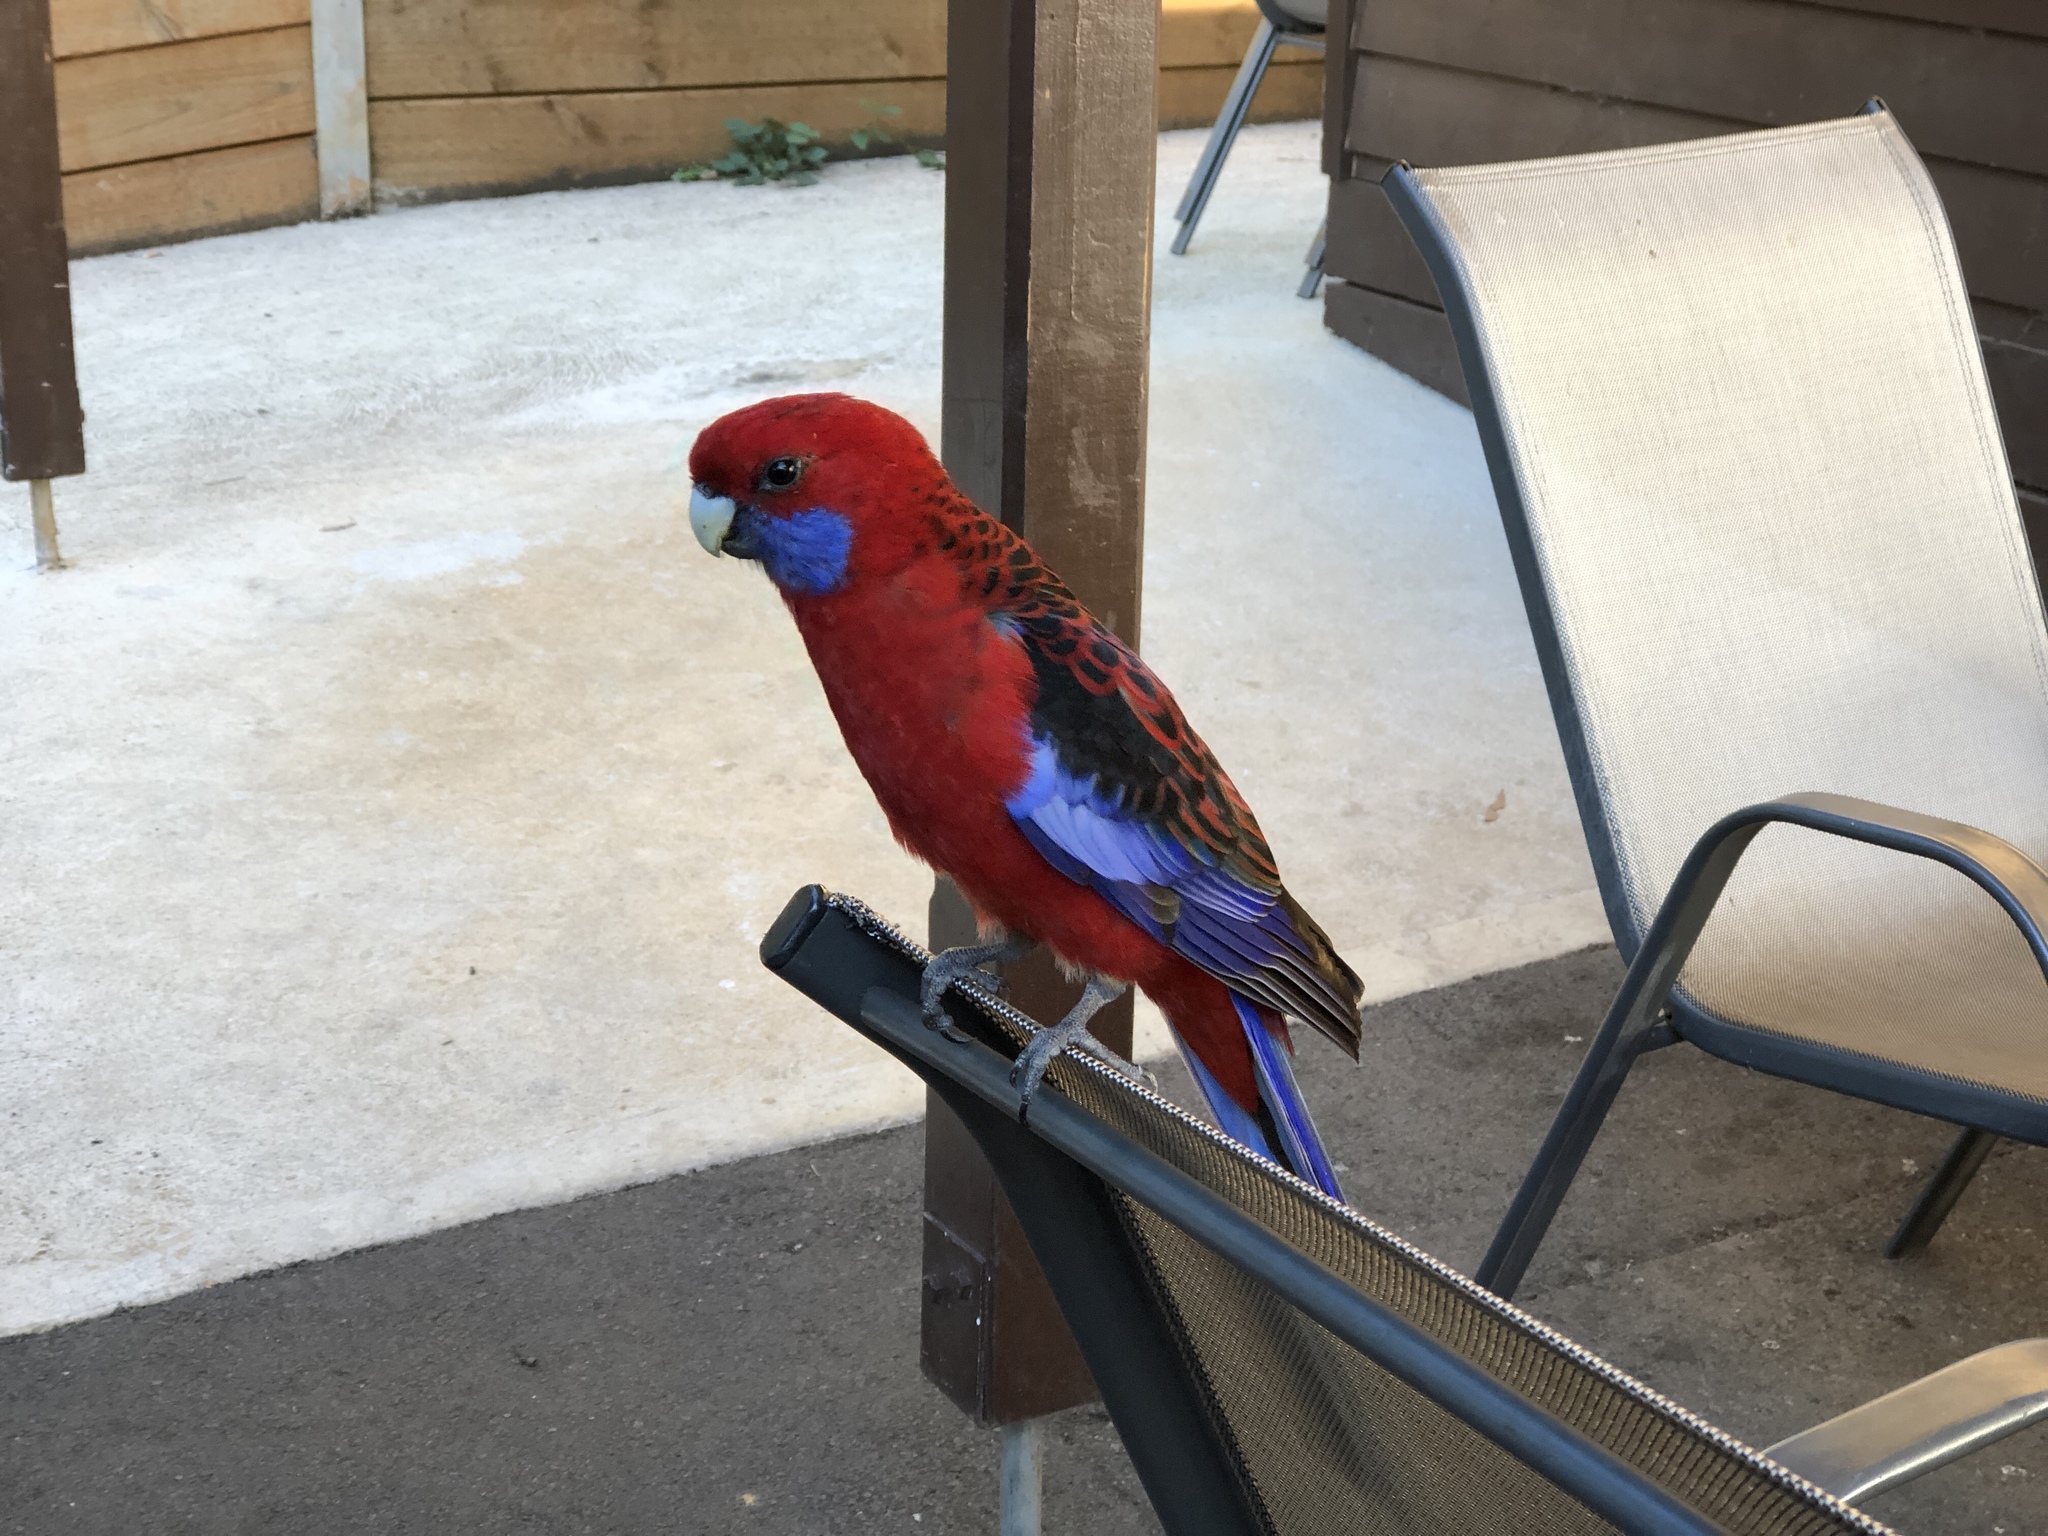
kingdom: Animalia
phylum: Chordata
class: Aves
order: Psittaciformes
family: Psittacidae
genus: Platycercus
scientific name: Platycercus elegans
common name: Crimson rosella
